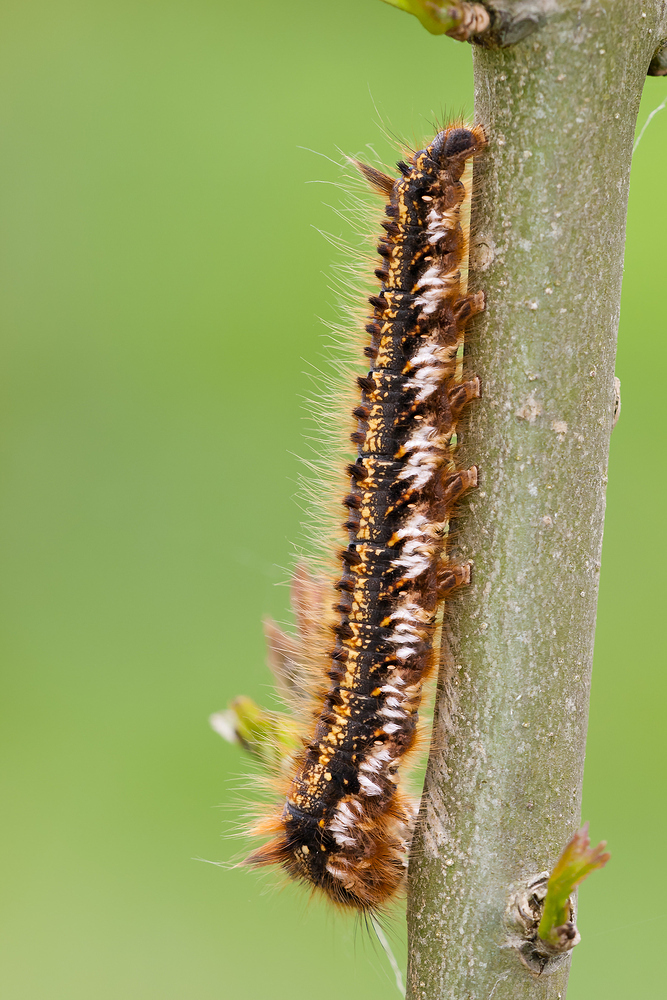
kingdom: Animalia
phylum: Arthropoda
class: Insecta
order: Lepidoptera
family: Lasiocampidae
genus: Euthrix
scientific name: Euthrix potatoria
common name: Drinker
